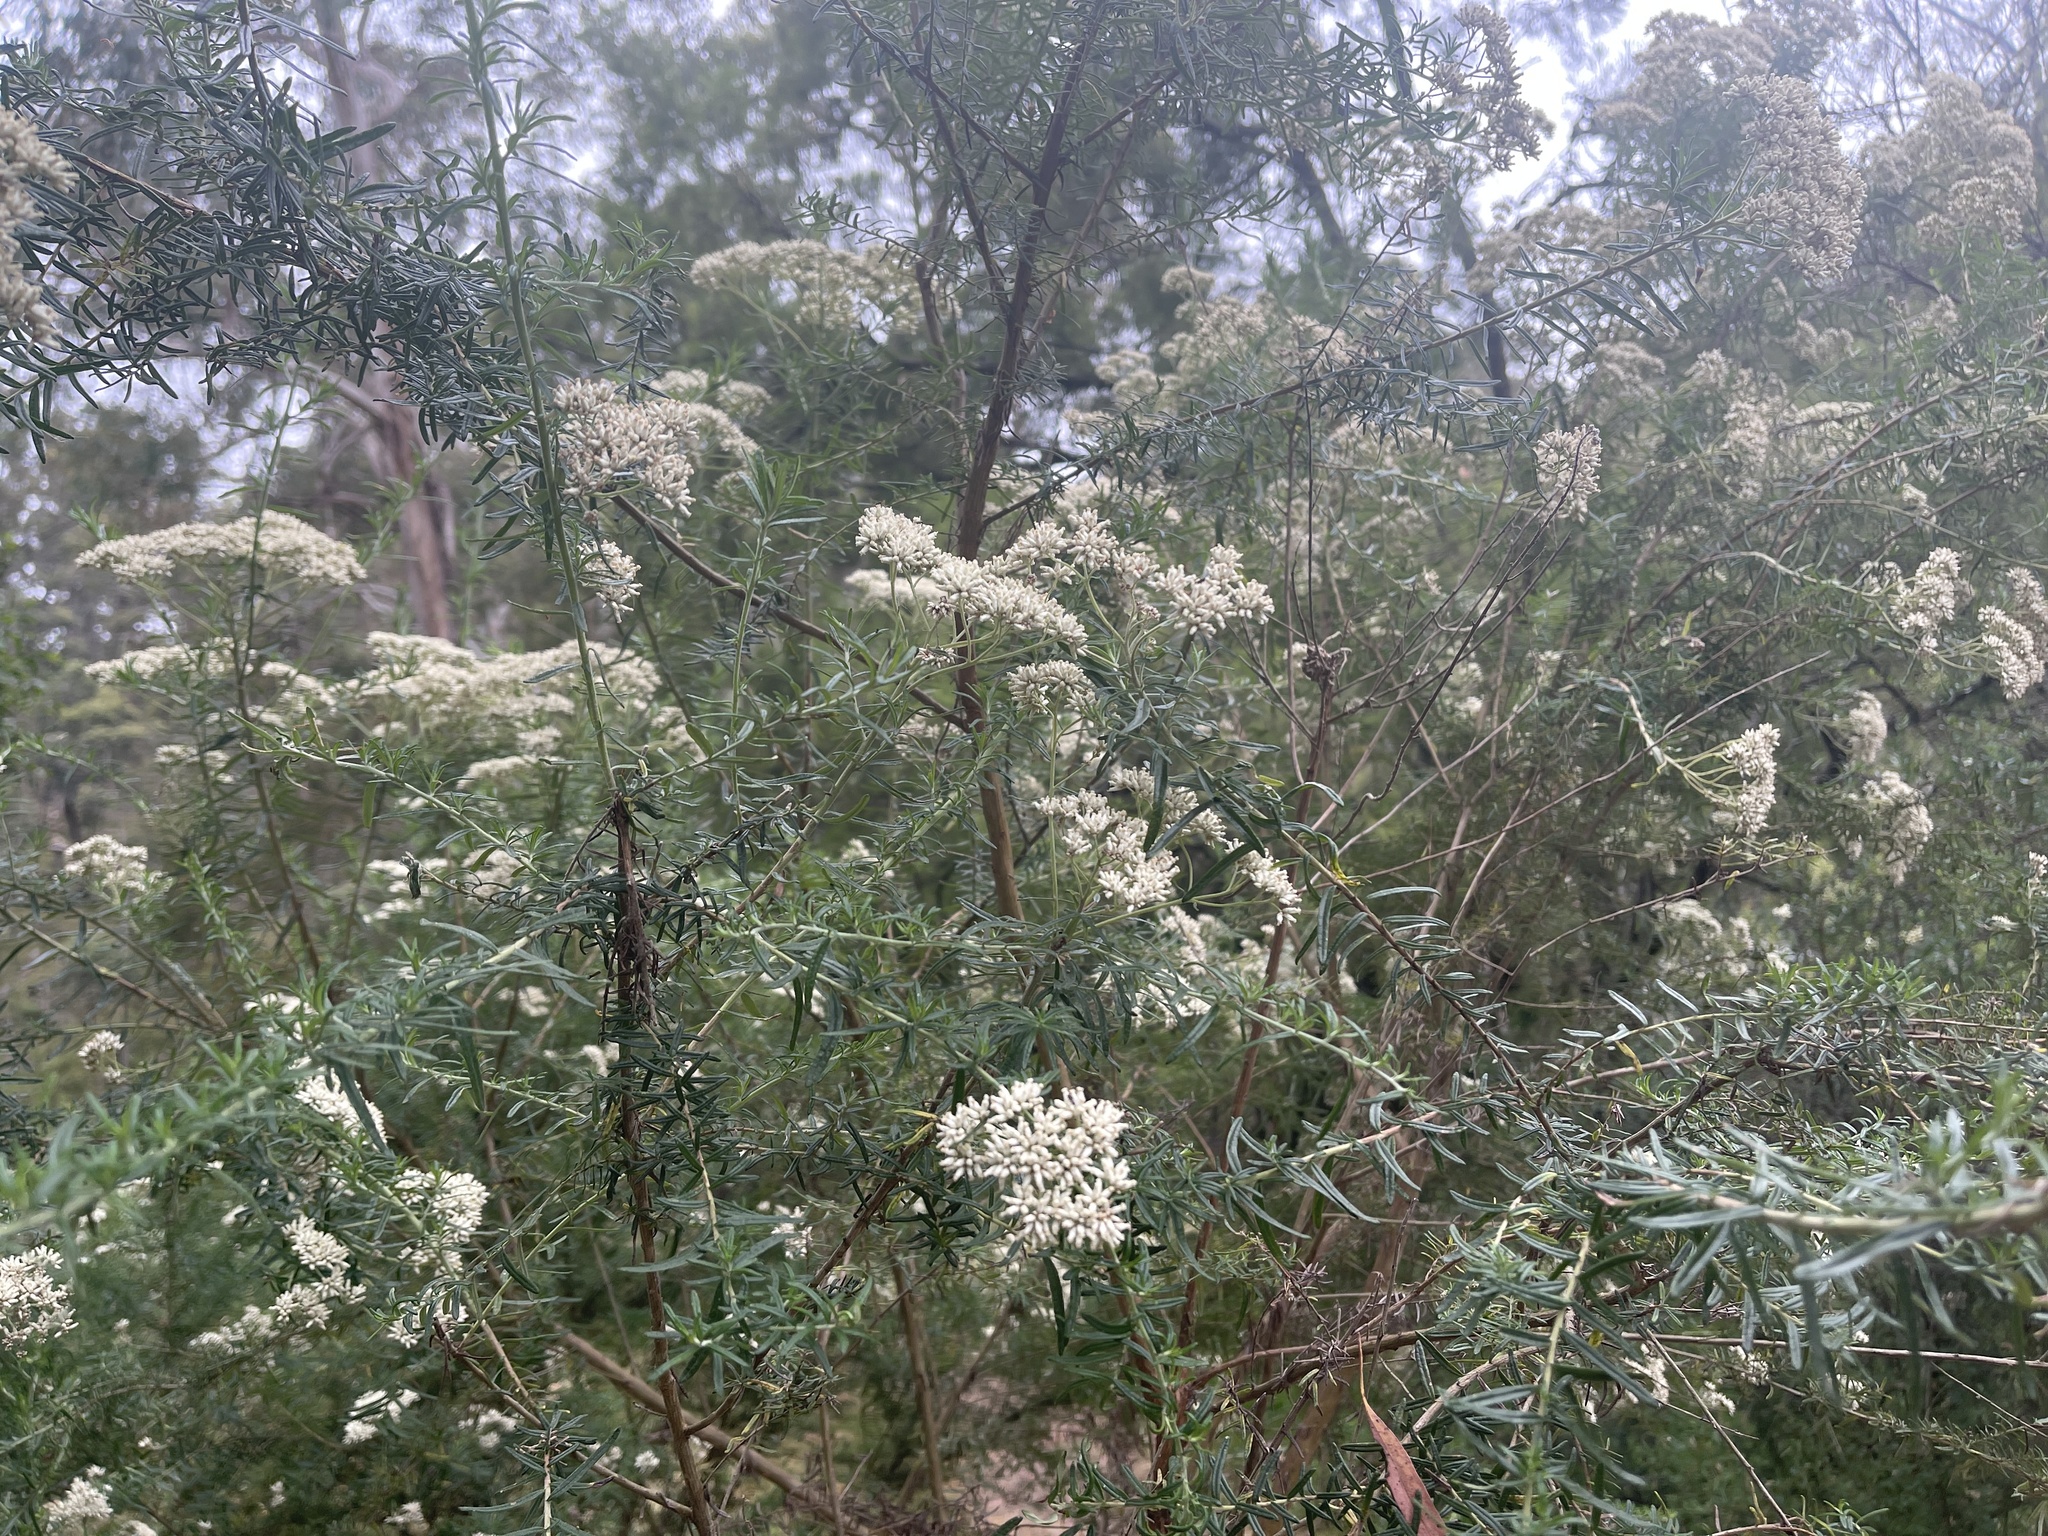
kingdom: Plantae
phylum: Tracheophyta
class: Magnoliopsida
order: Asterales
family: Asteraceae
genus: Cassinia
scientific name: Cassinia longifolia
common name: Longleaf-dogwood
